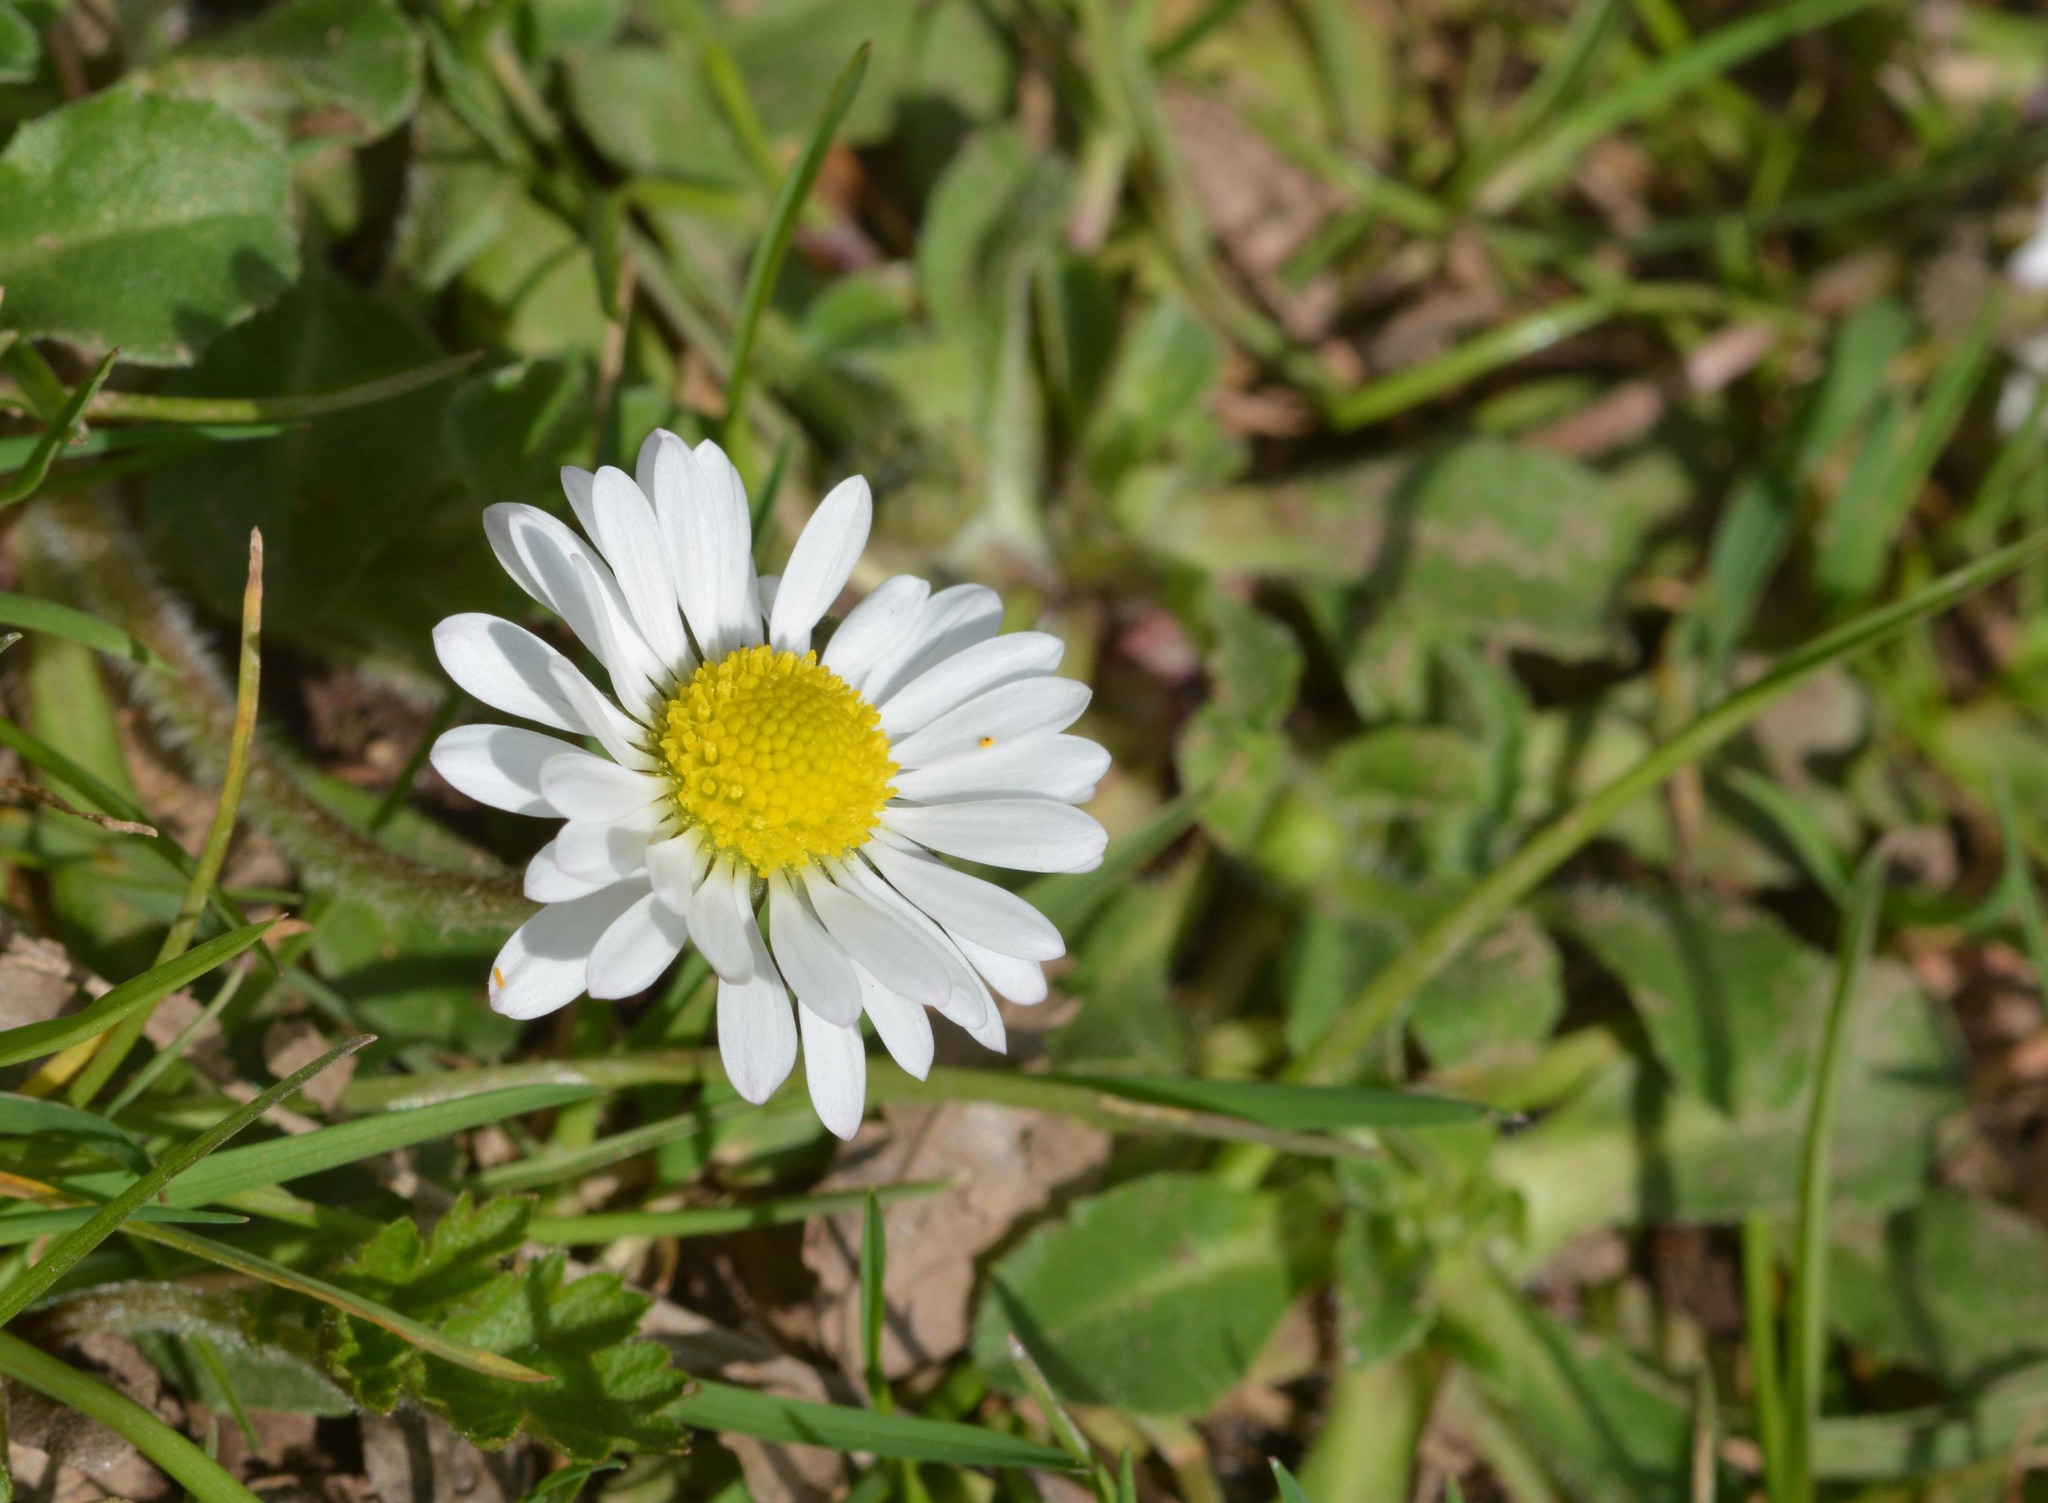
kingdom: Plantae
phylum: Tracheophyta
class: Magnoliopsida
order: Asterales
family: Asteraceae
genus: Bellis
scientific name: Bellis perennis
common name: Lawndaisy
